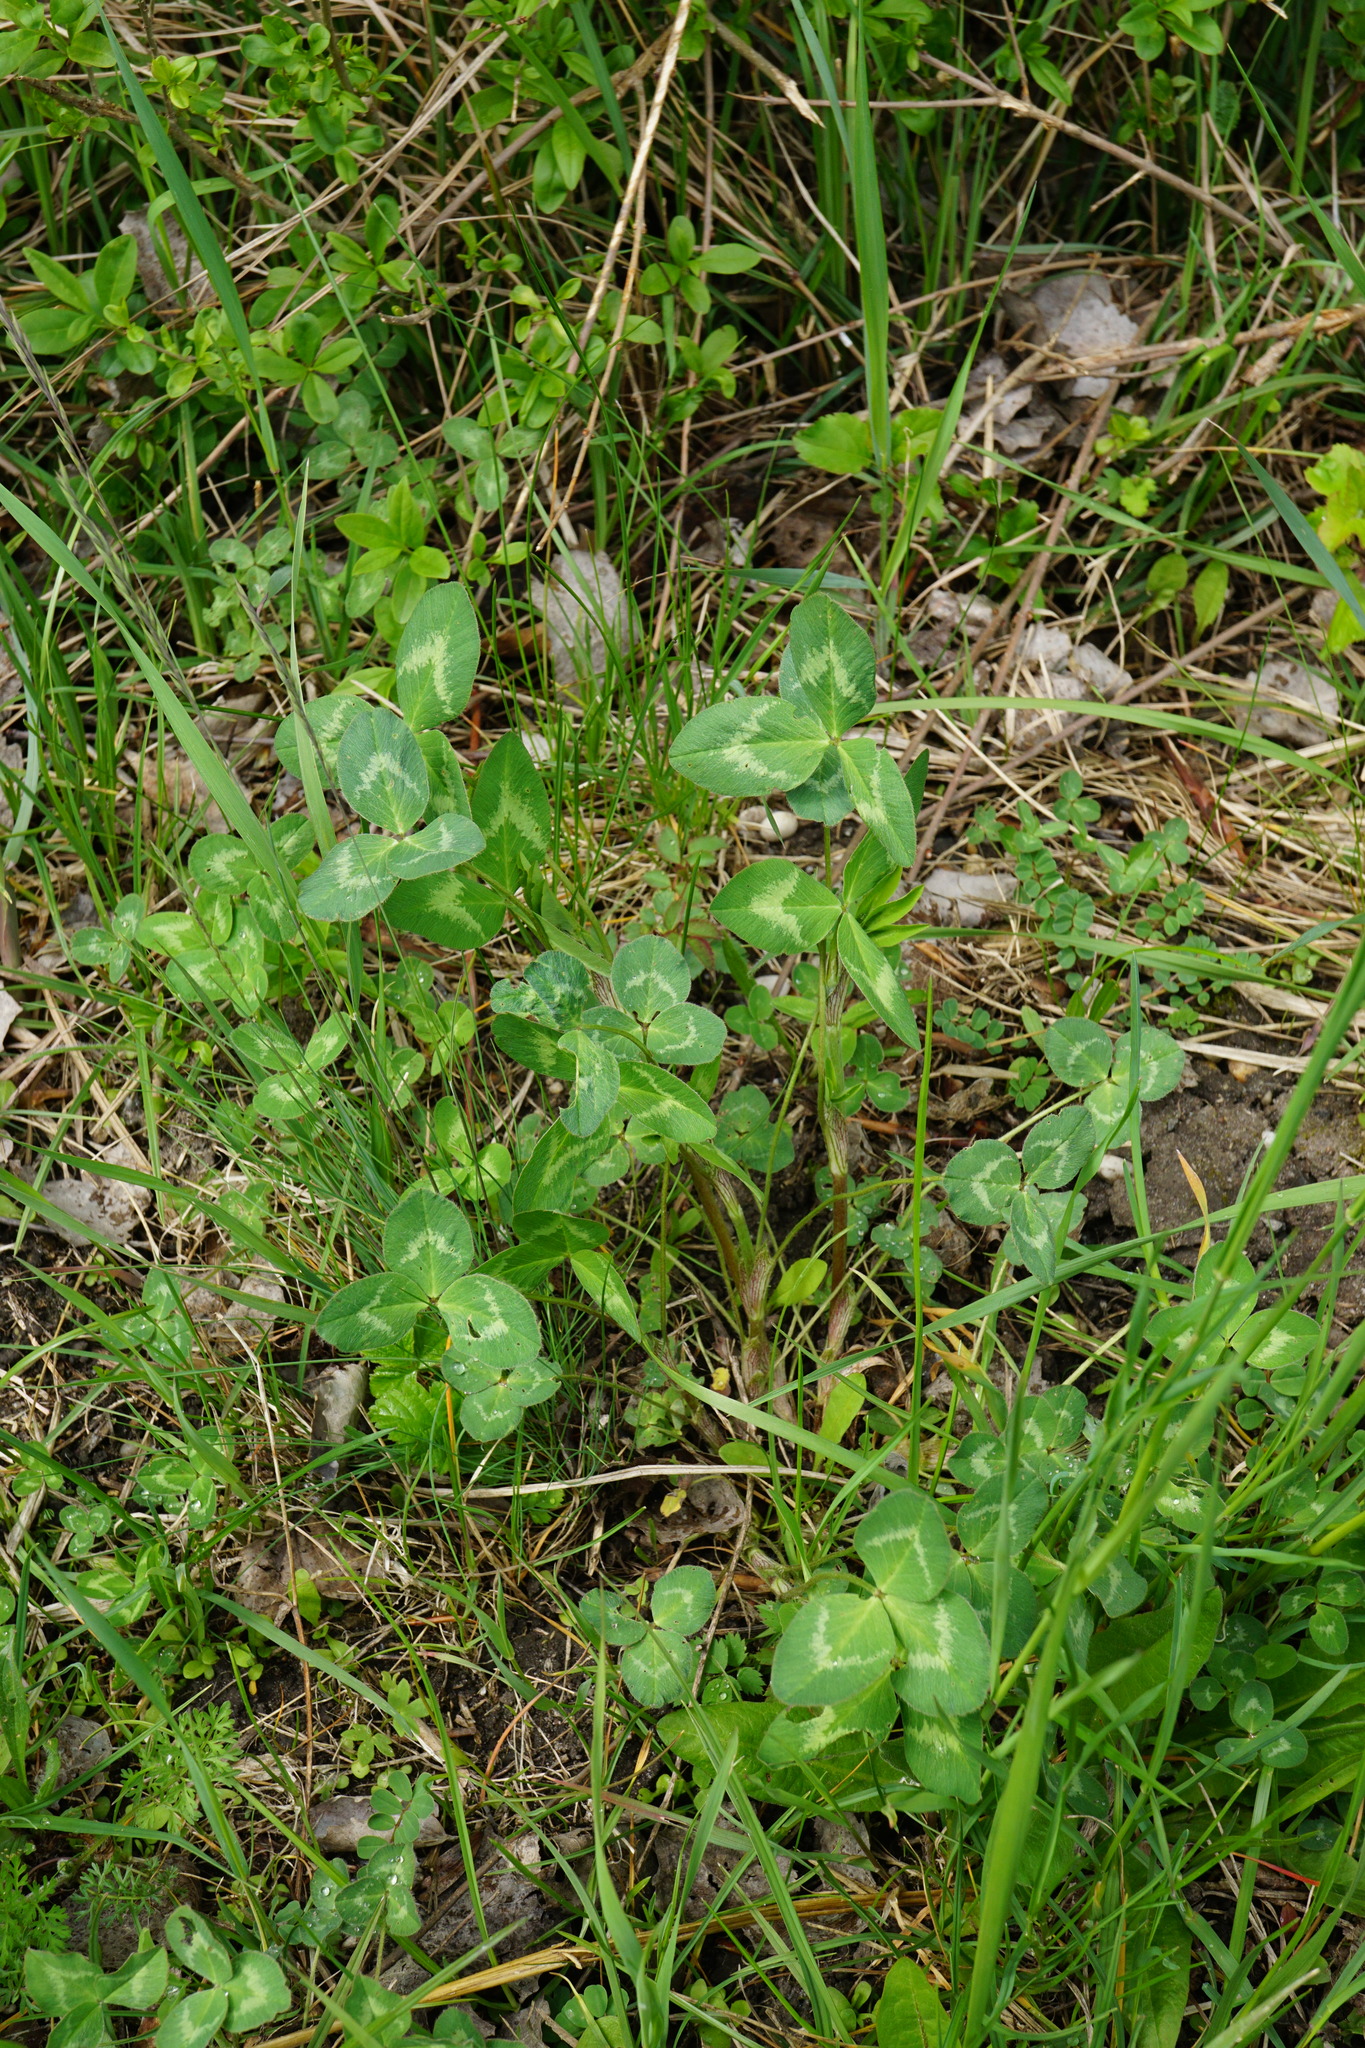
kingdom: Plantae
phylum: Tracheophyta
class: Magnoliopsida
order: Fabales
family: Fabaceae
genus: Trifolium
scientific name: Trifolium pratense
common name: Red clover
